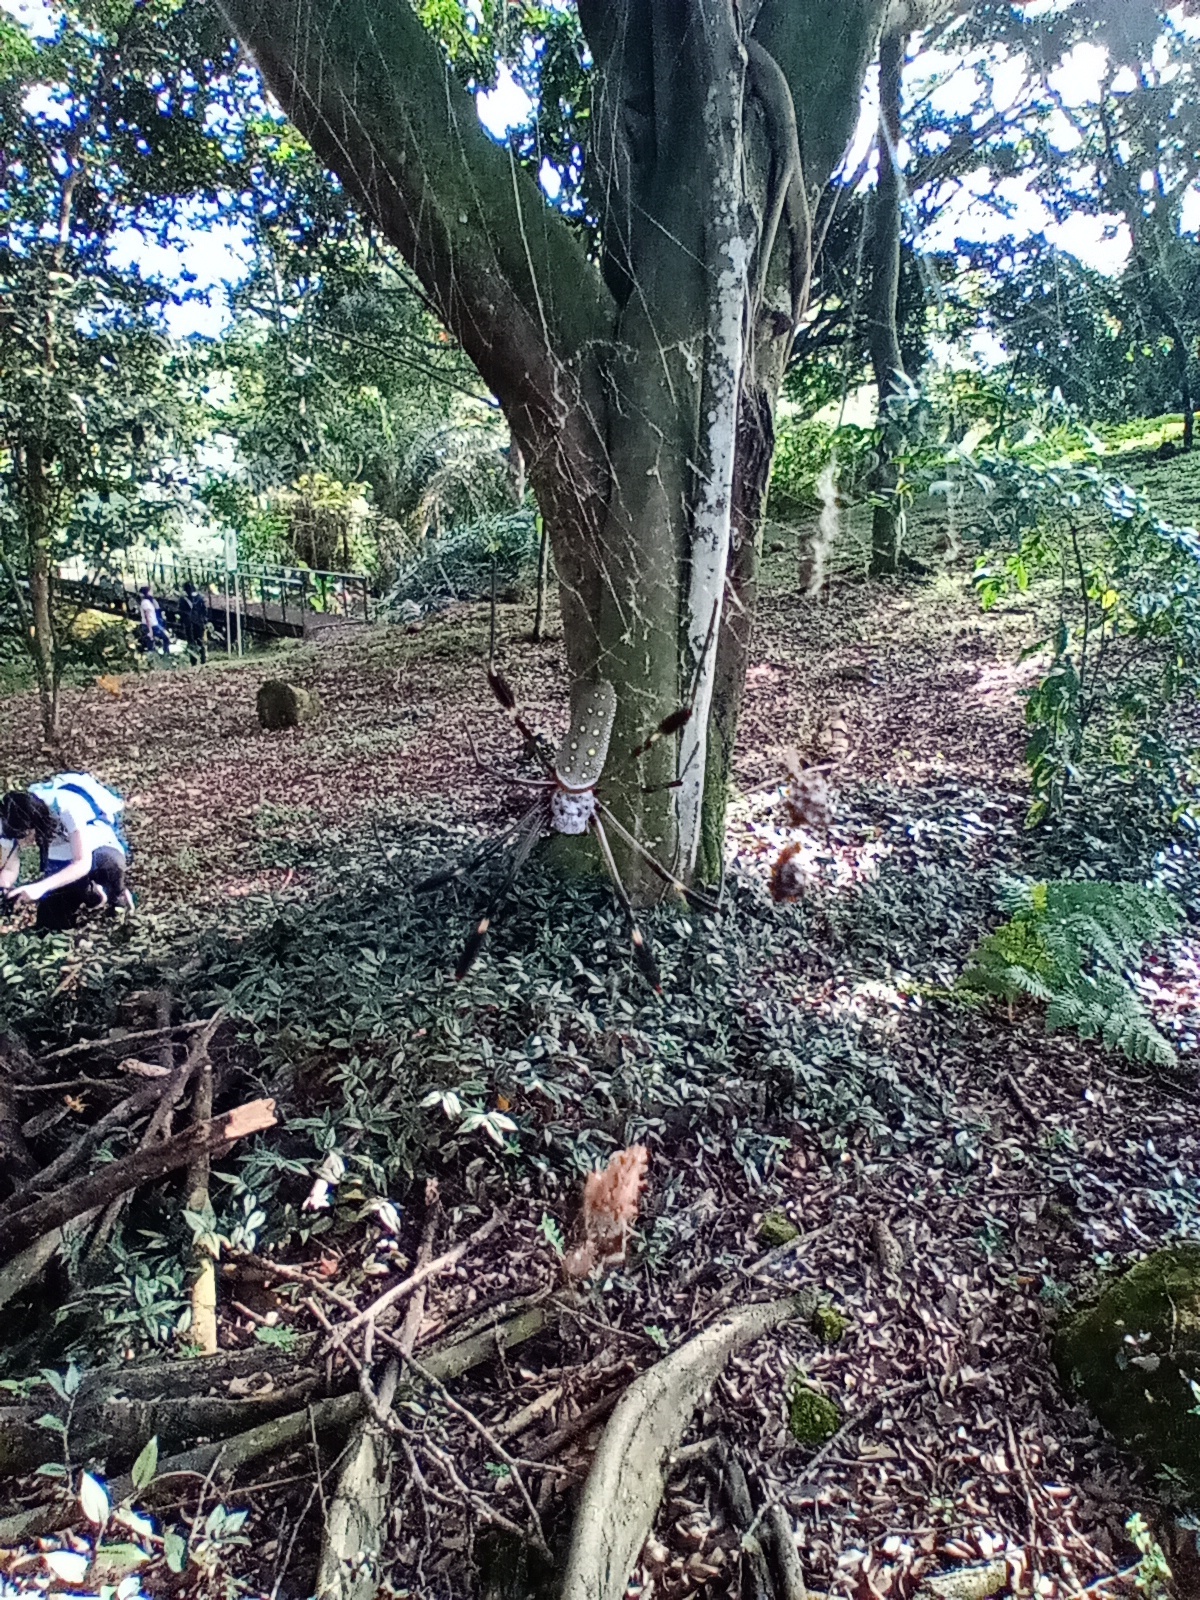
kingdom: Animalia
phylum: Arthropoda
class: Arachnida
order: Araneae
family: Araneidae
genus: Trichonephila
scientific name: Trichonephila clavipes
